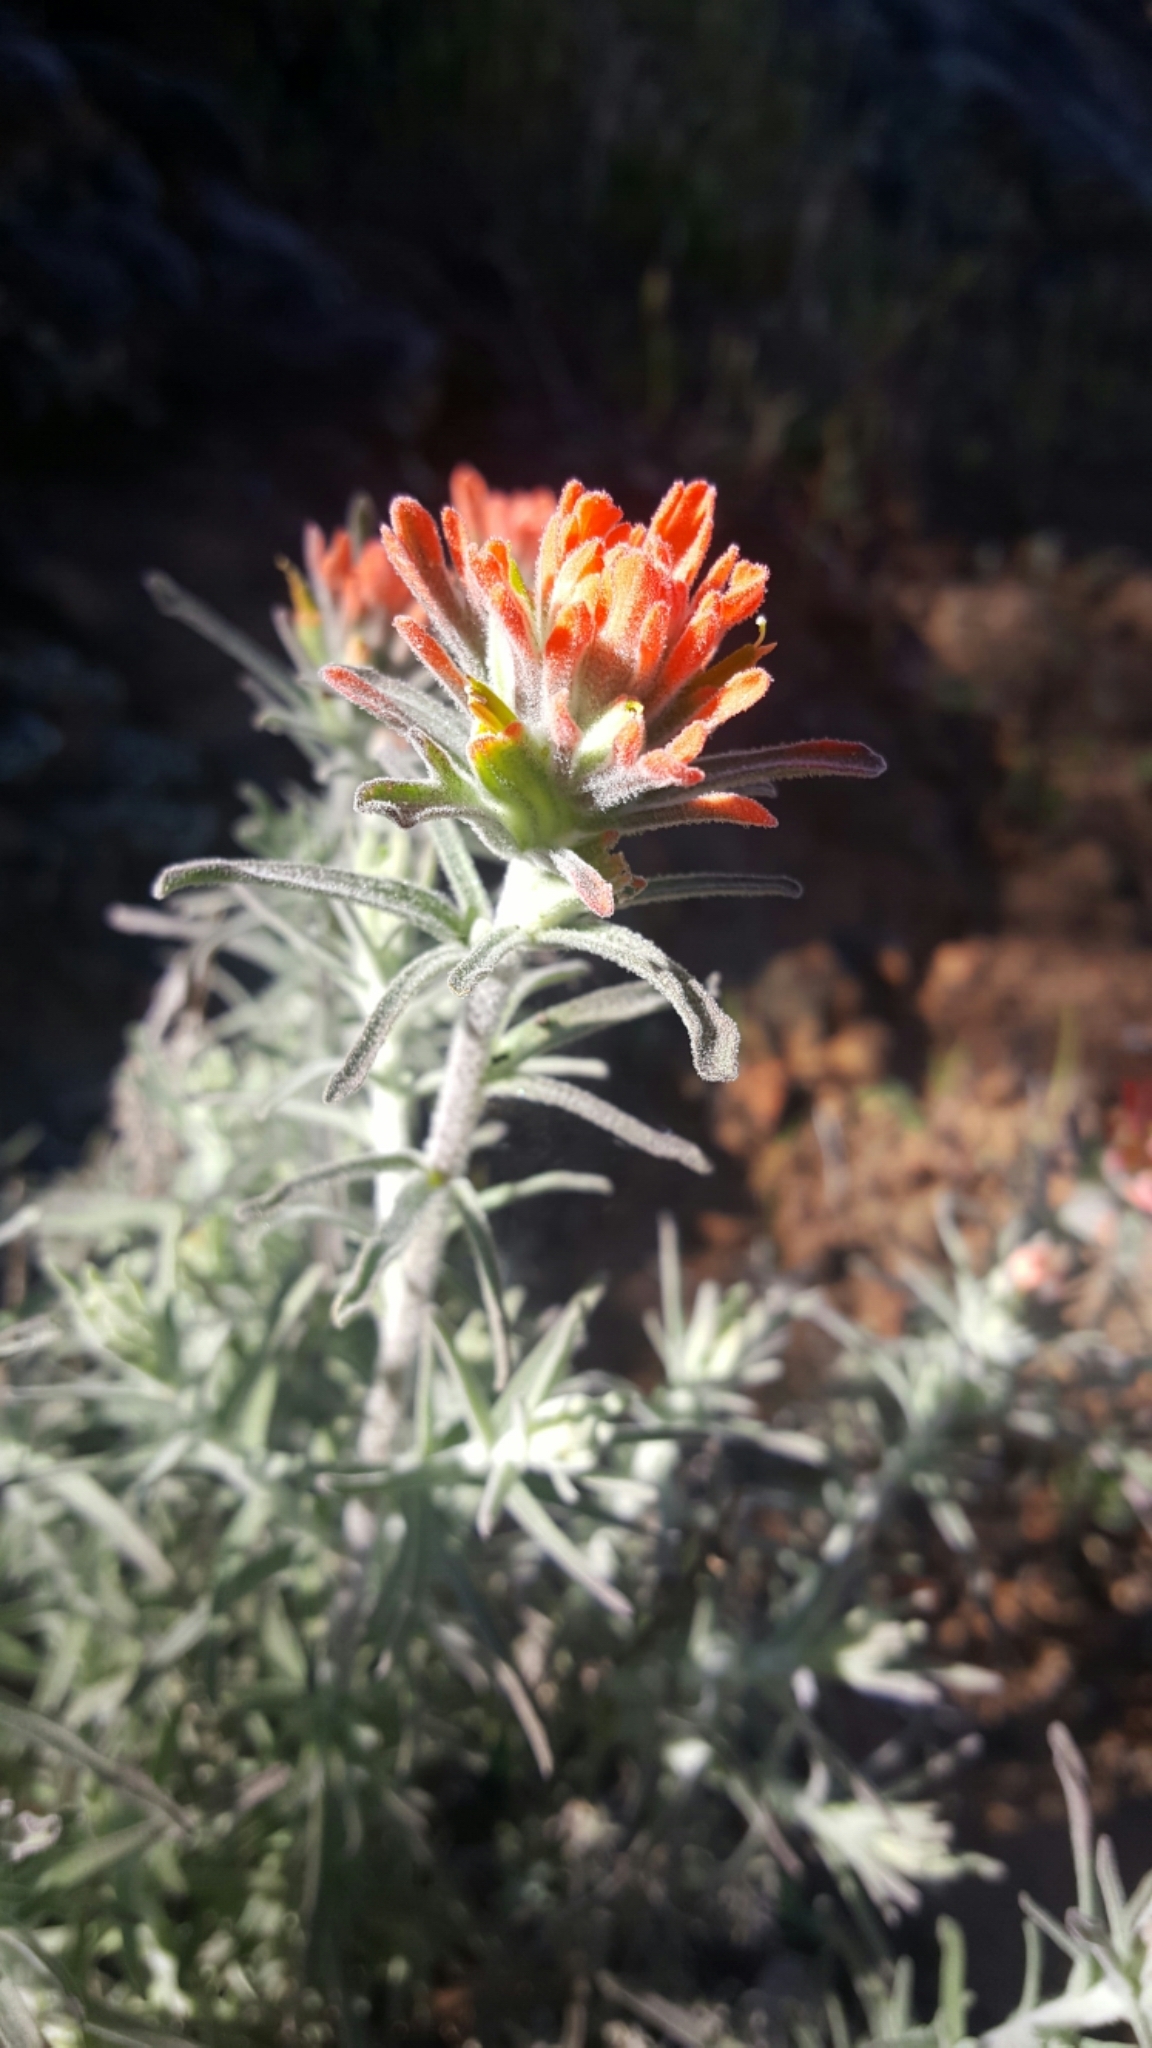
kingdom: Plantae
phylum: Tracheophyta
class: Magnoliopsida
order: Lamiales
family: Orobanchaceae
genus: Castilleja
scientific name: Castilleja foliolosa
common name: Woolly indian paintbrush
